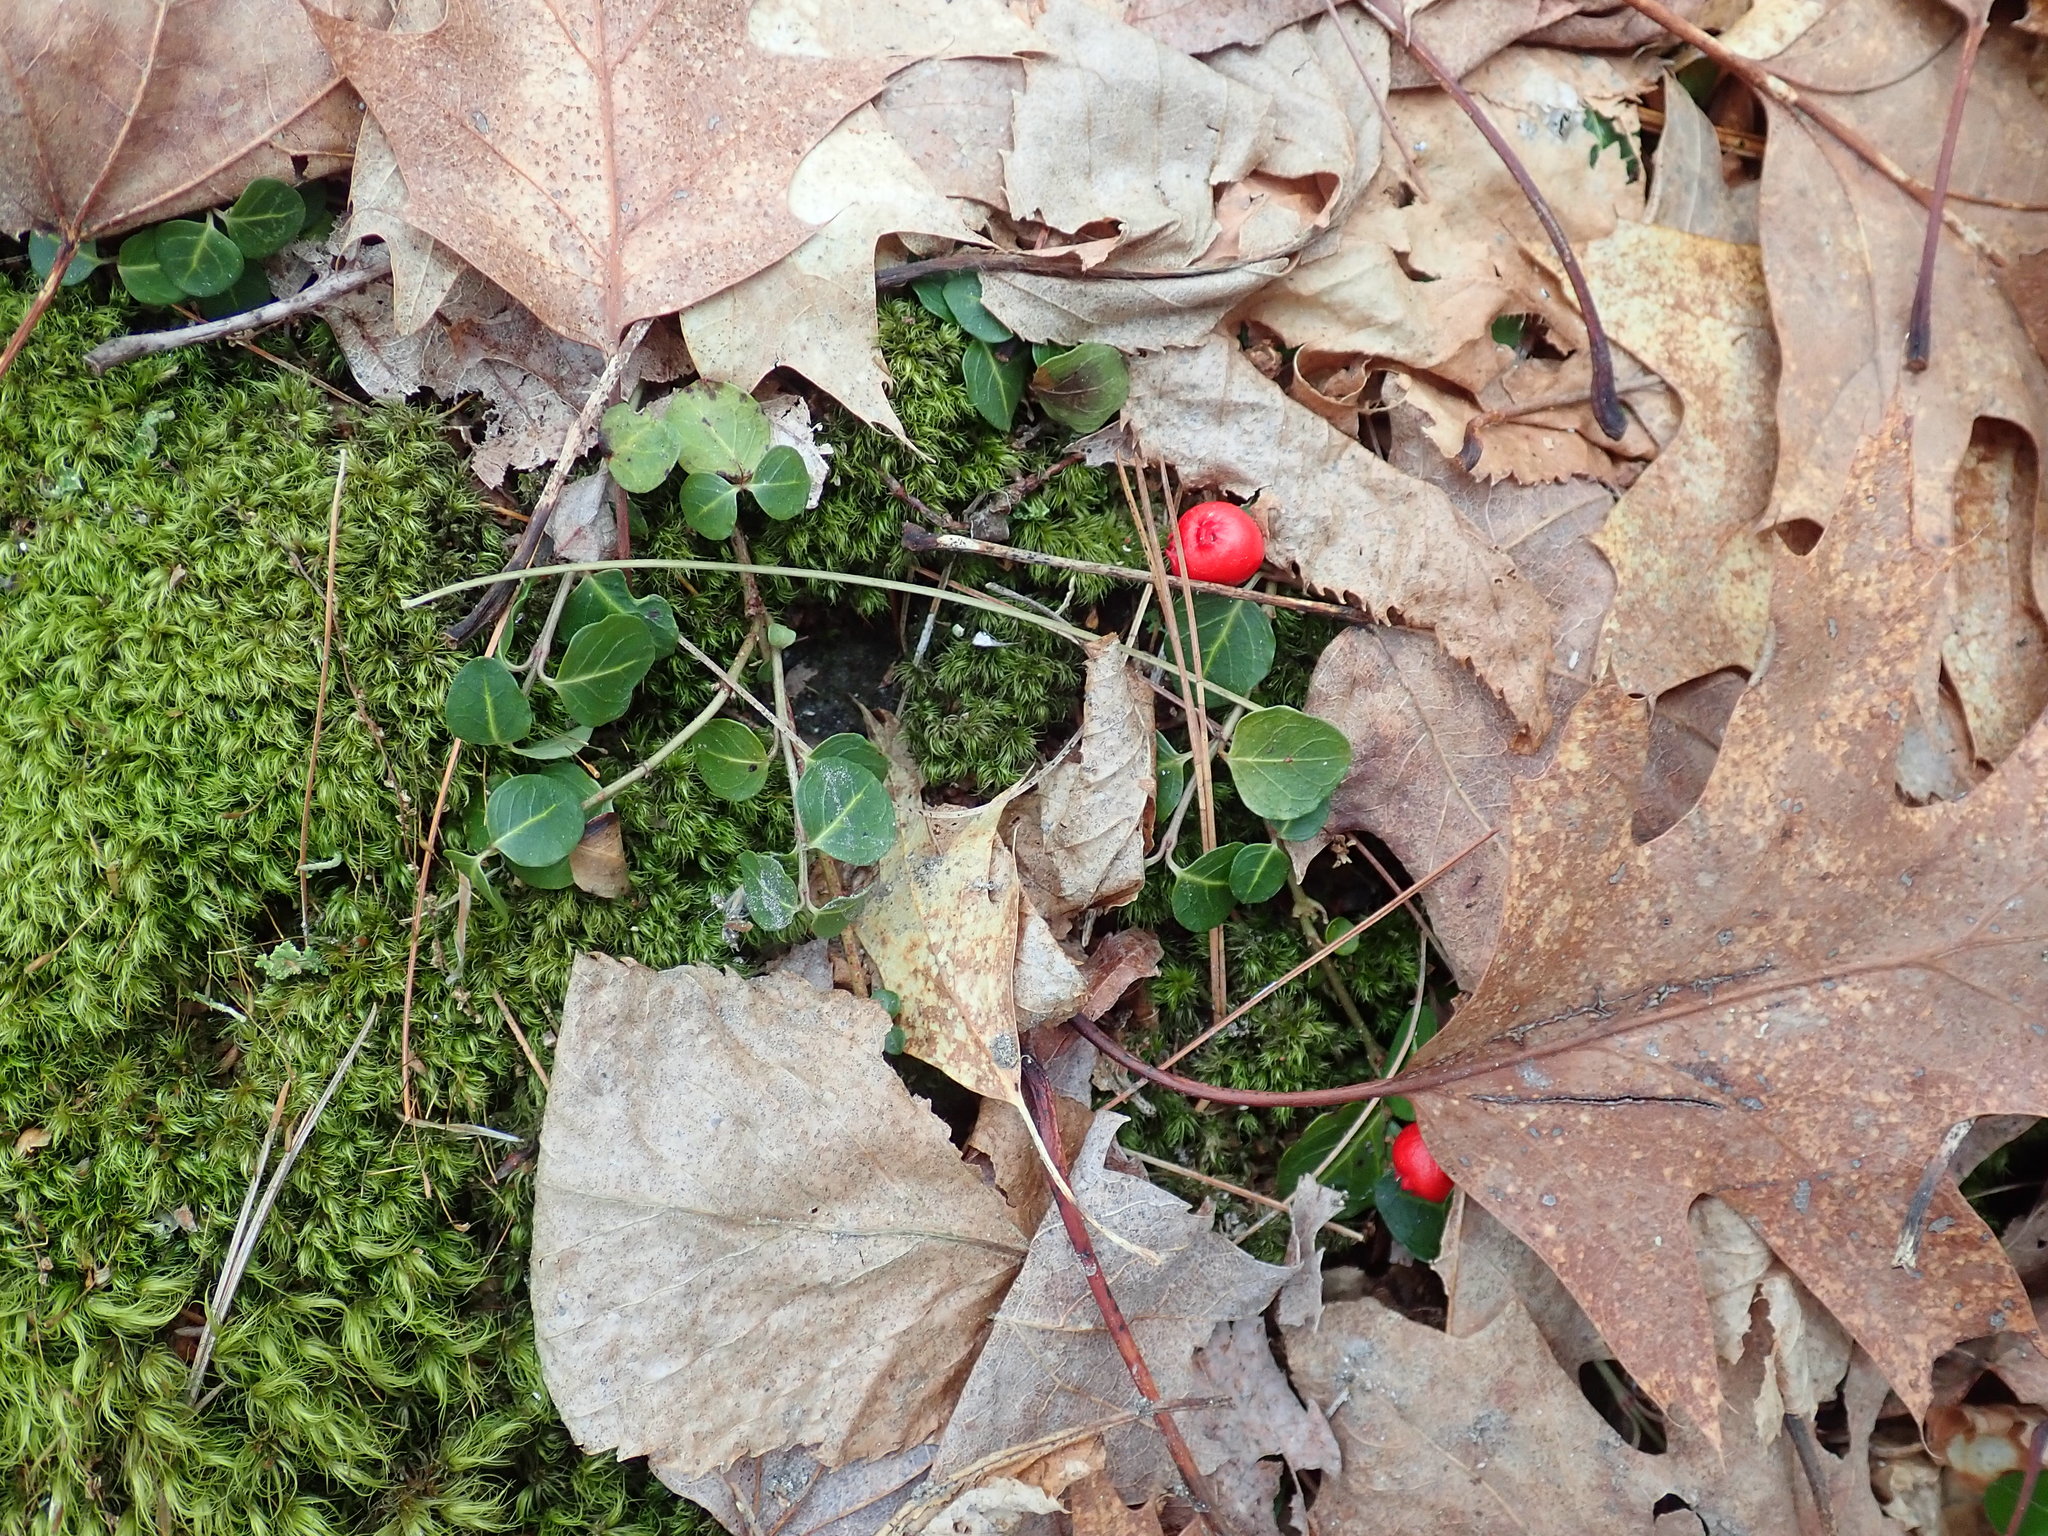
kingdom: Plantae
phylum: Tracheophyta
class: Magnoliopsida
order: Gentianales
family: Rubiaceae
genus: Mitchella
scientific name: Mitchella repens
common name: Partridge-berry
